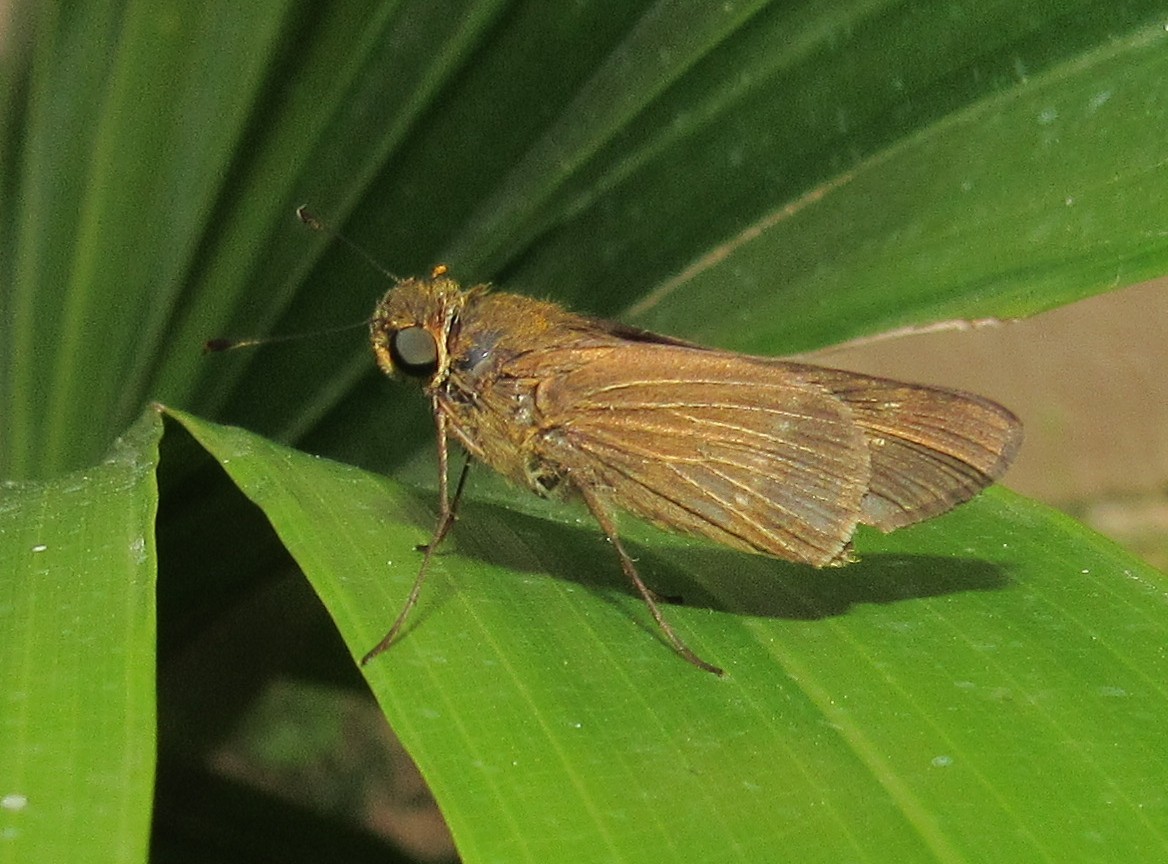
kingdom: Animalia
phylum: Arthropoda
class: Insecta
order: Lepidoptera
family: Hesperiidae
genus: Panoquina
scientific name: Panoquina ocola
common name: Ocola skipper
